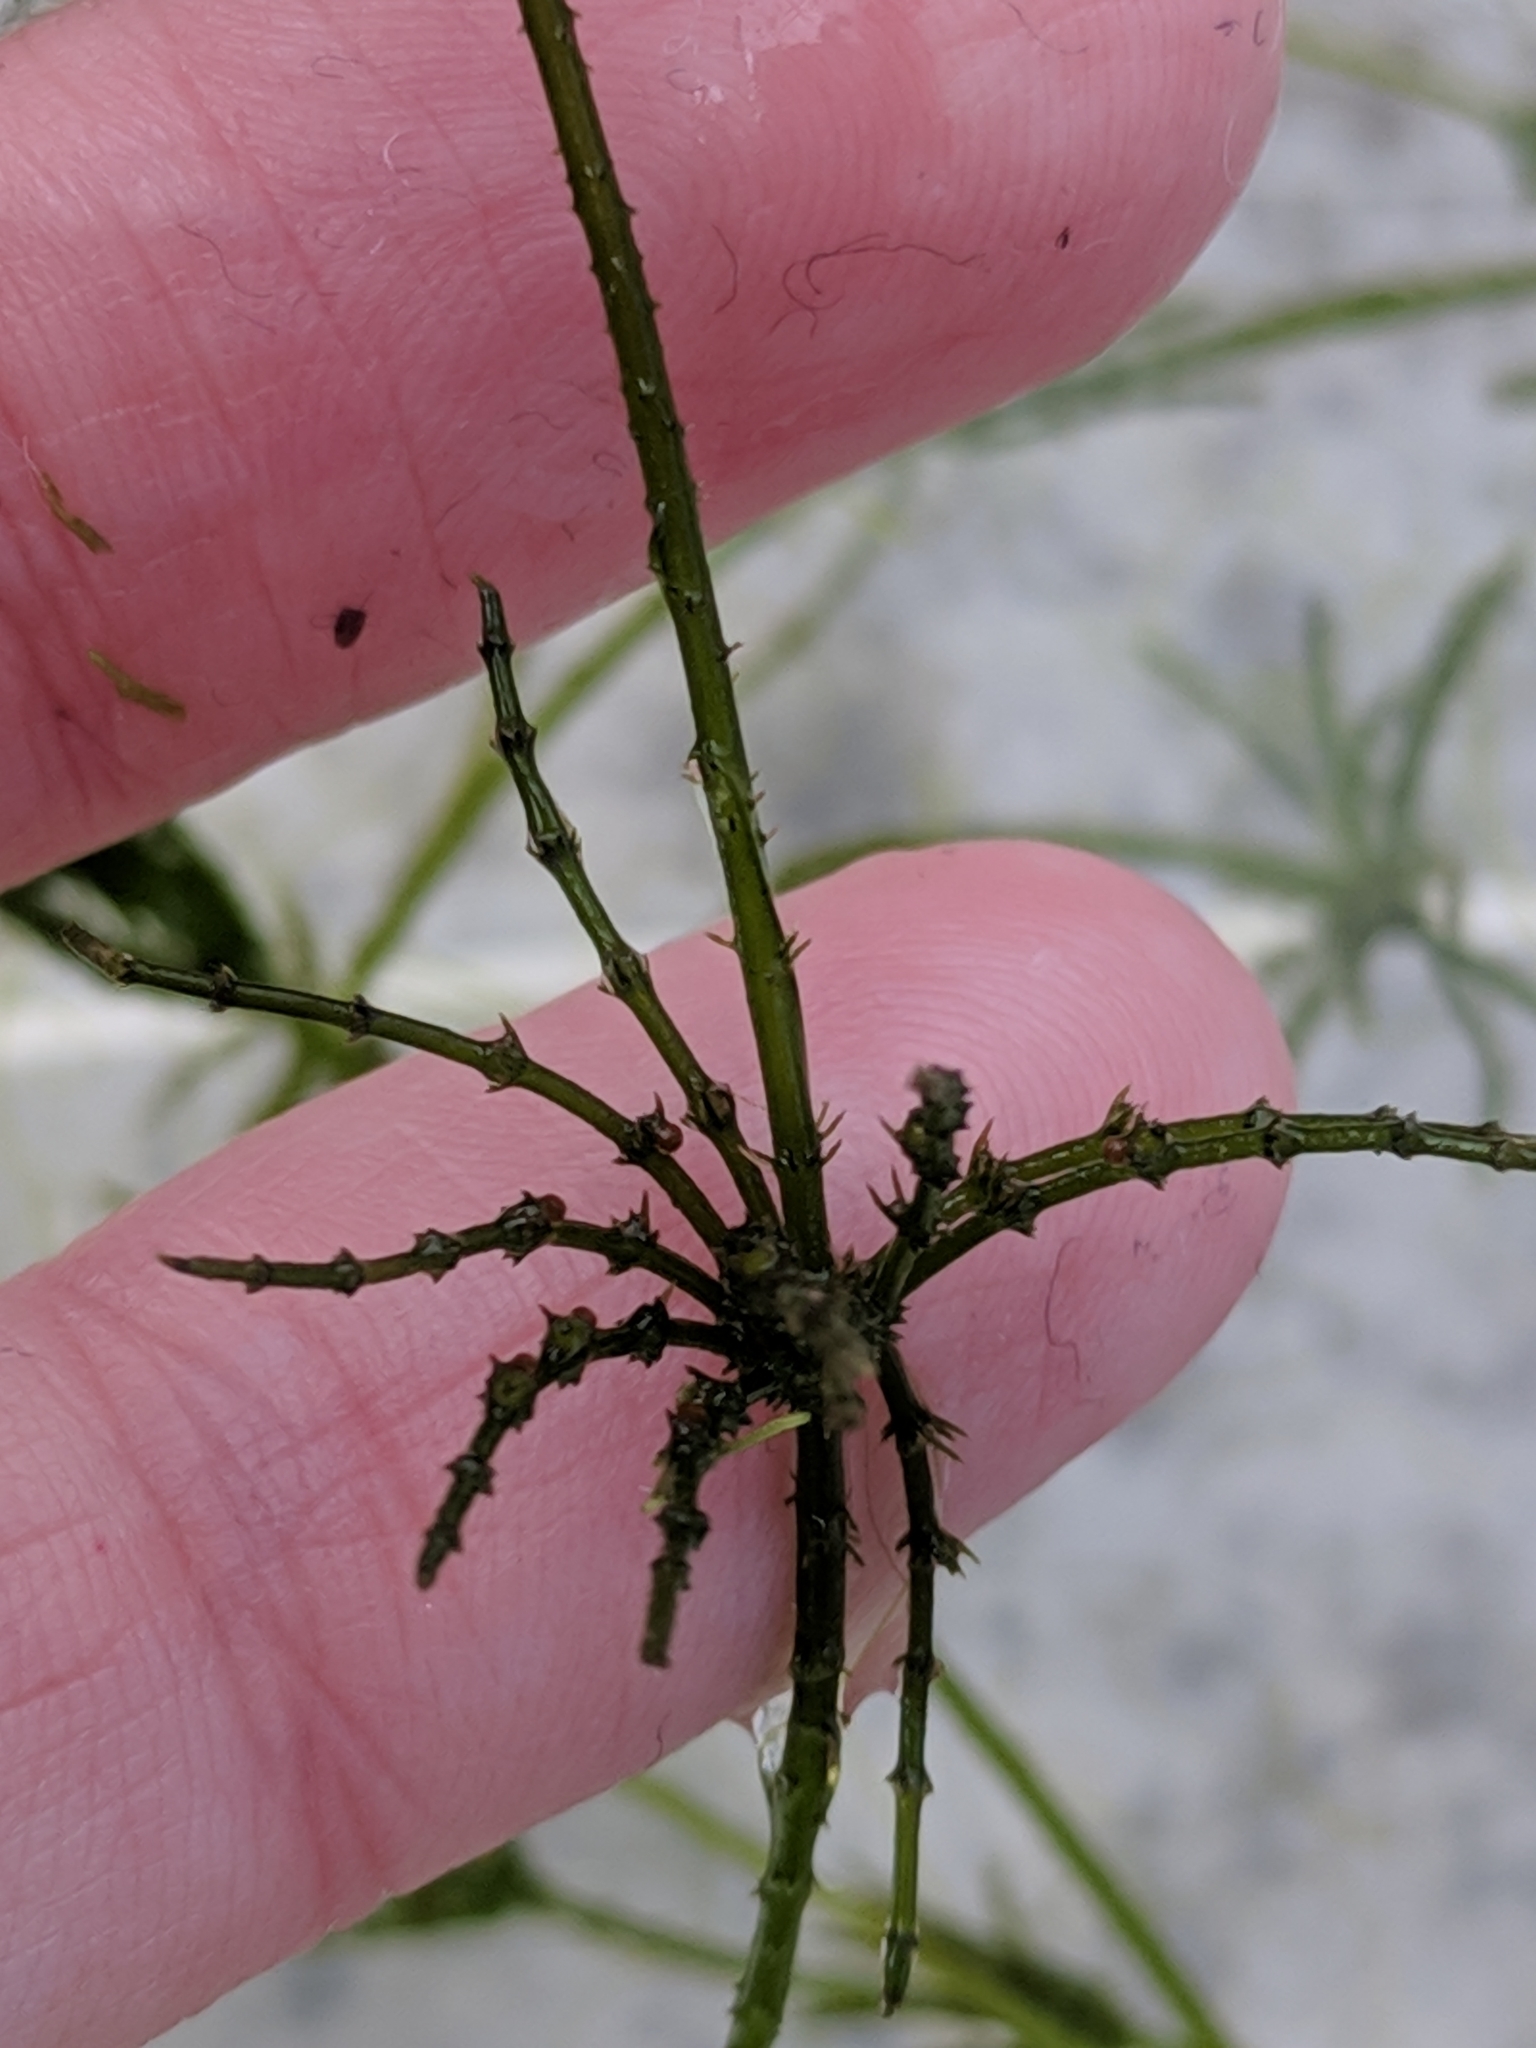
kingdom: Plantae
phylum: Charophyta
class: Charophyceae
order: Charales
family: Characeae
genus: Chara
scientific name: Chara zeylanica
